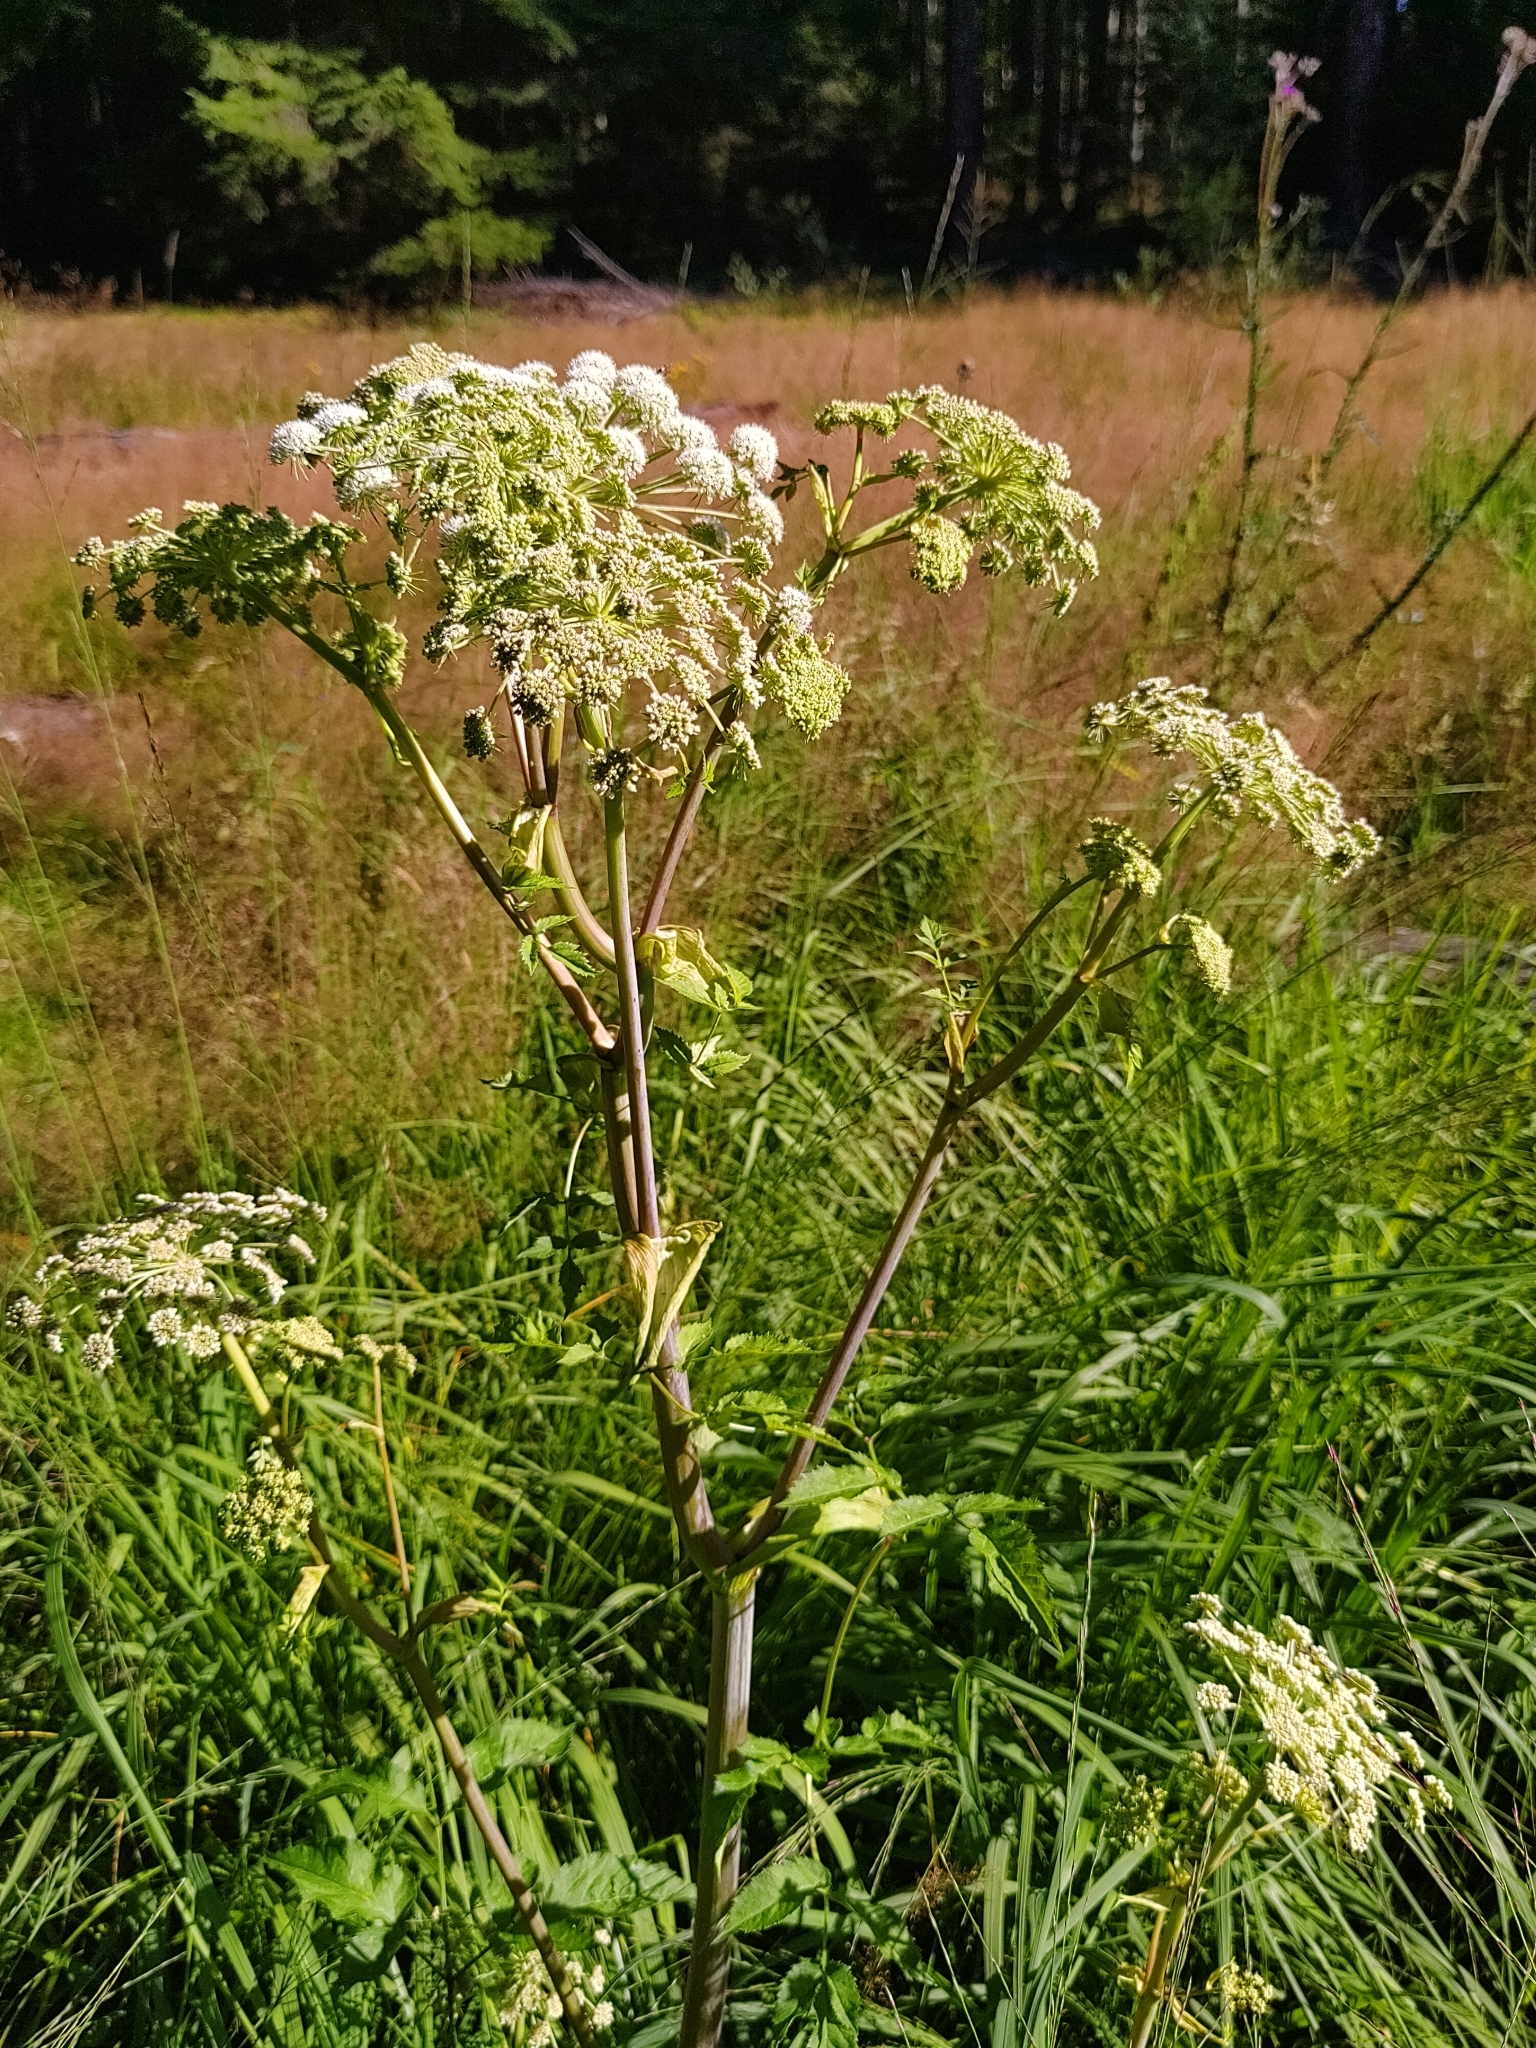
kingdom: Plantae
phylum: Tracheophyta
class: Magnoliopsida
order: Apiales
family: Apiaceae
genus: Angelica
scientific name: Angelica sylvestris
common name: Wild angelica
